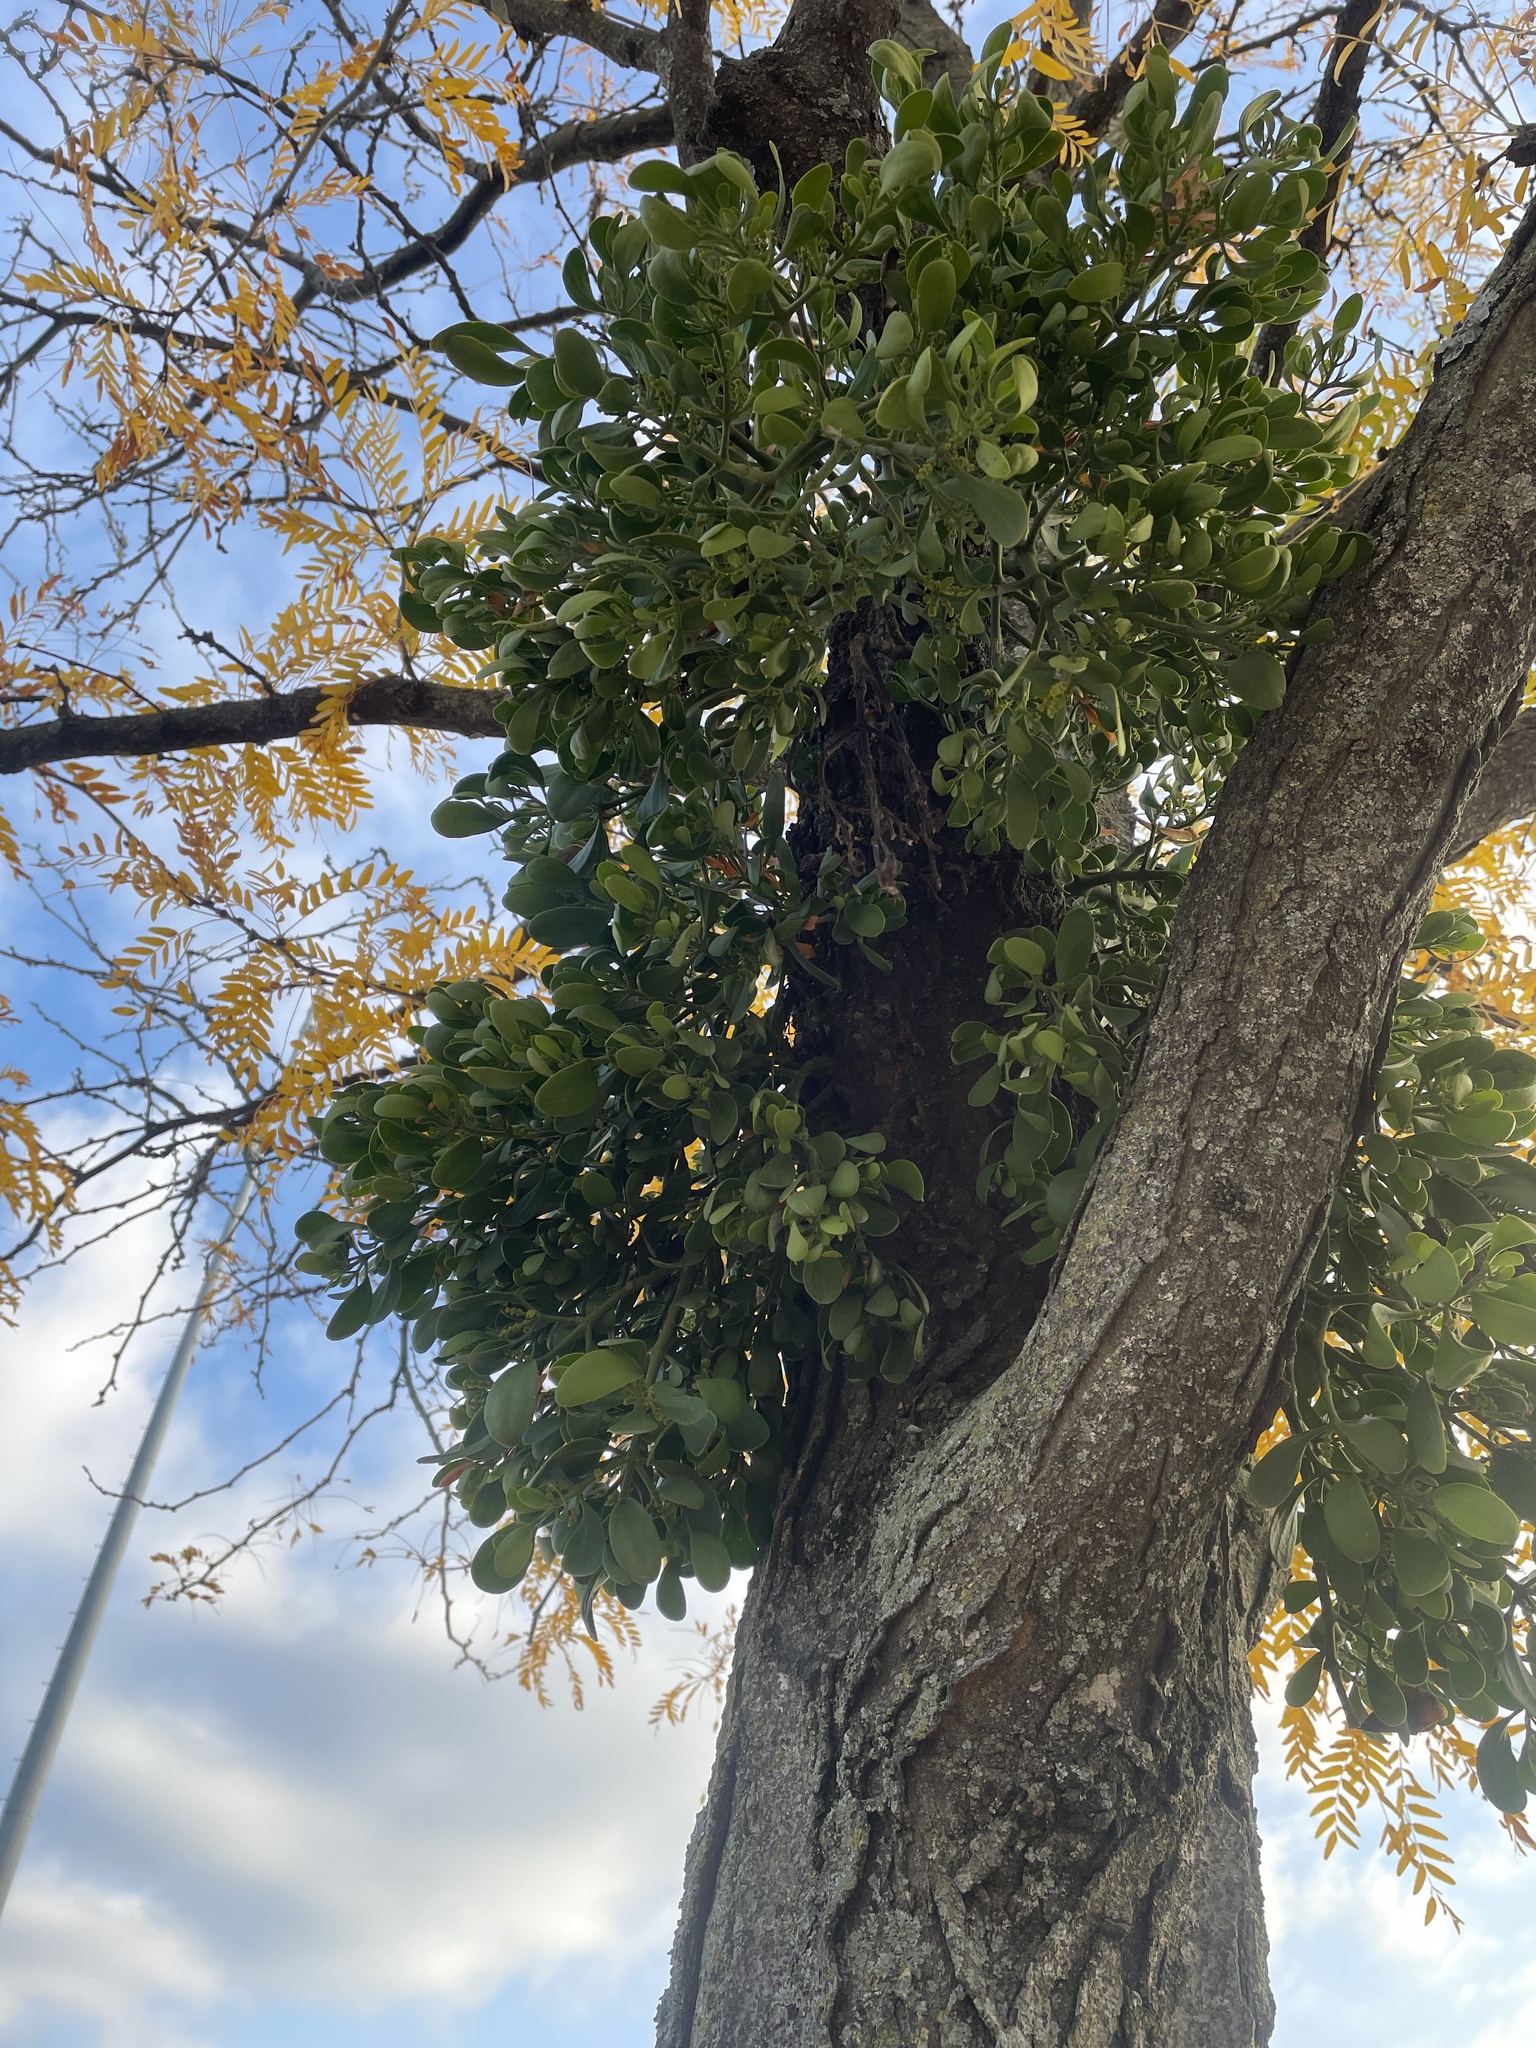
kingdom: Plantae
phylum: Tracheophyta
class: Magnoliopsida
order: Santalales
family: Viscaceae
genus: Phoradendron
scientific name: Phoradendron leucarpum
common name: Pacific mistletoe
